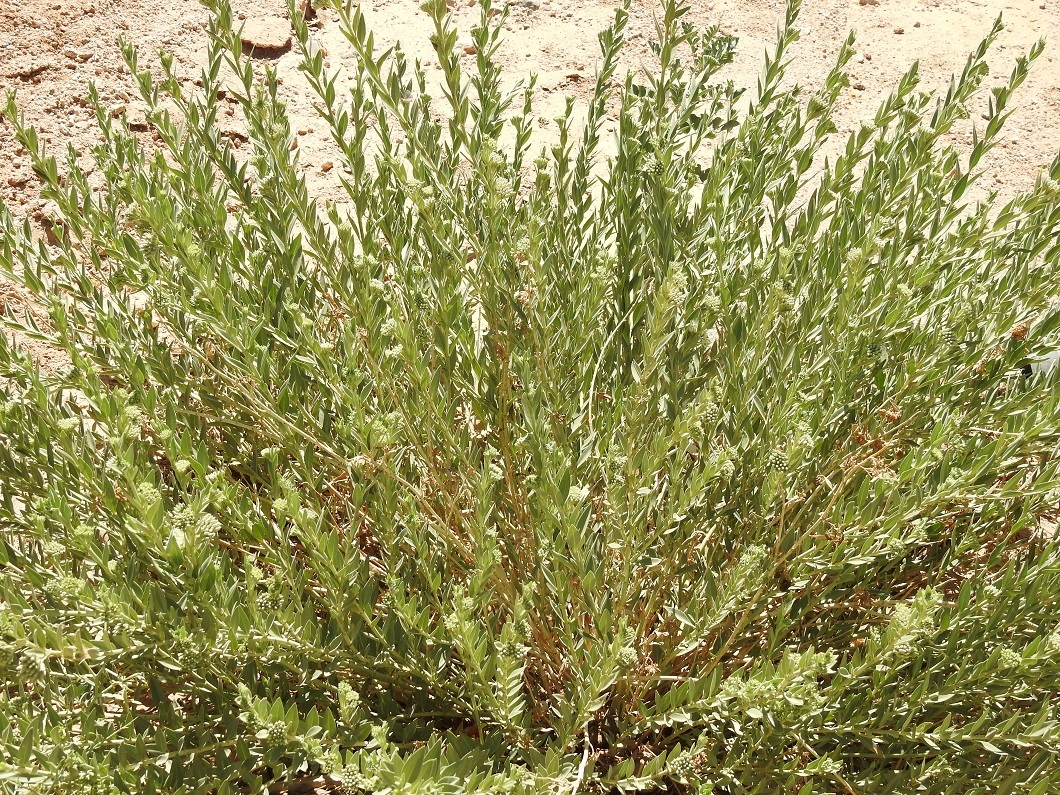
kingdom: Plantae
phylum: Tracheophyta
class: Magnoliopsida
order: Gentianales
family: Apocynaceae
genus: Solenostemma
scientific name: Solenostemma oleifolium
